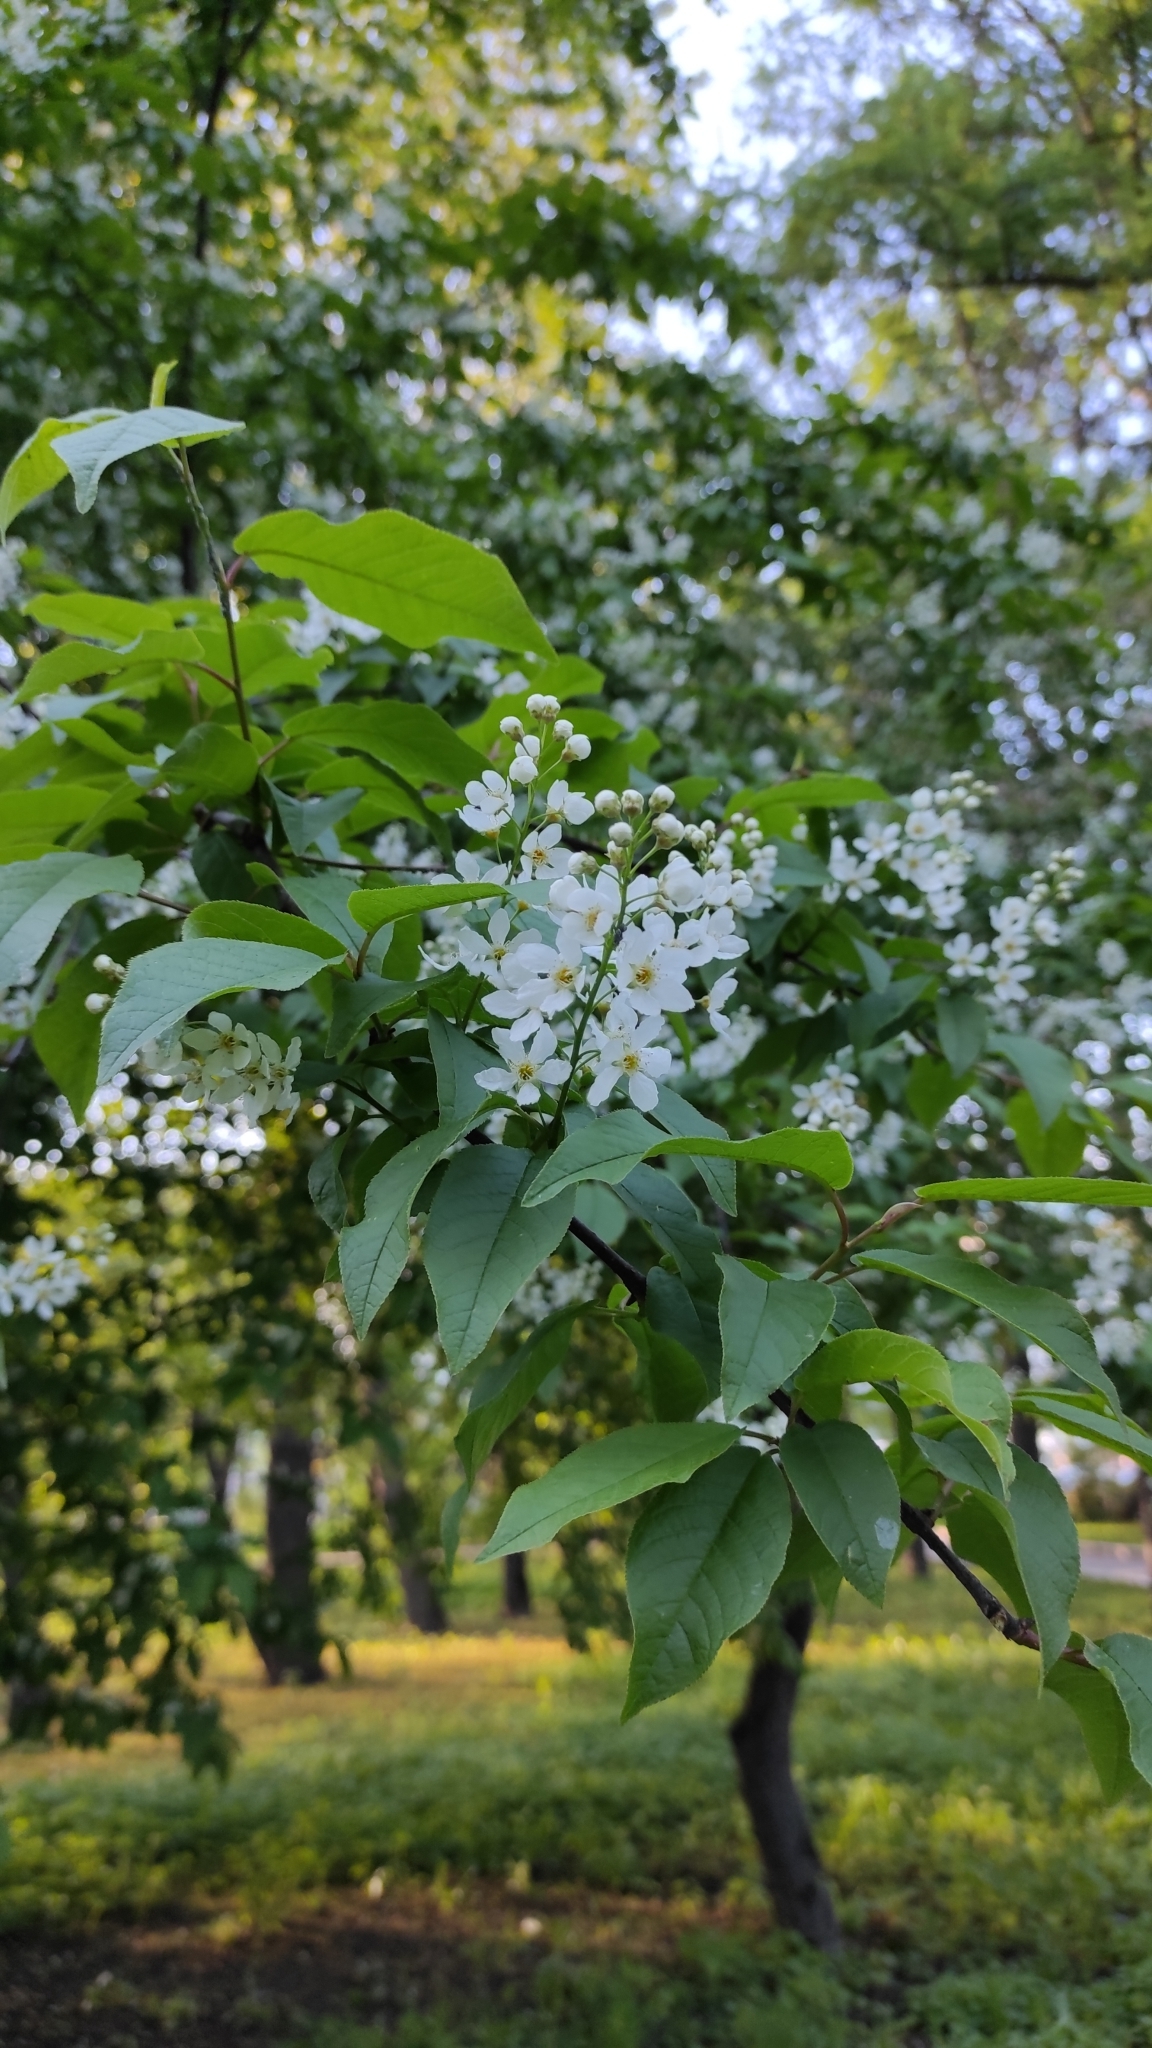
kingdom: Plantae
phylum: Tracheophyta
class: Magnoliopsida
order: Rosales
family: Rosaceae
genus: Prunus
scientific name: Prunus padus
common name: Bird cherry
